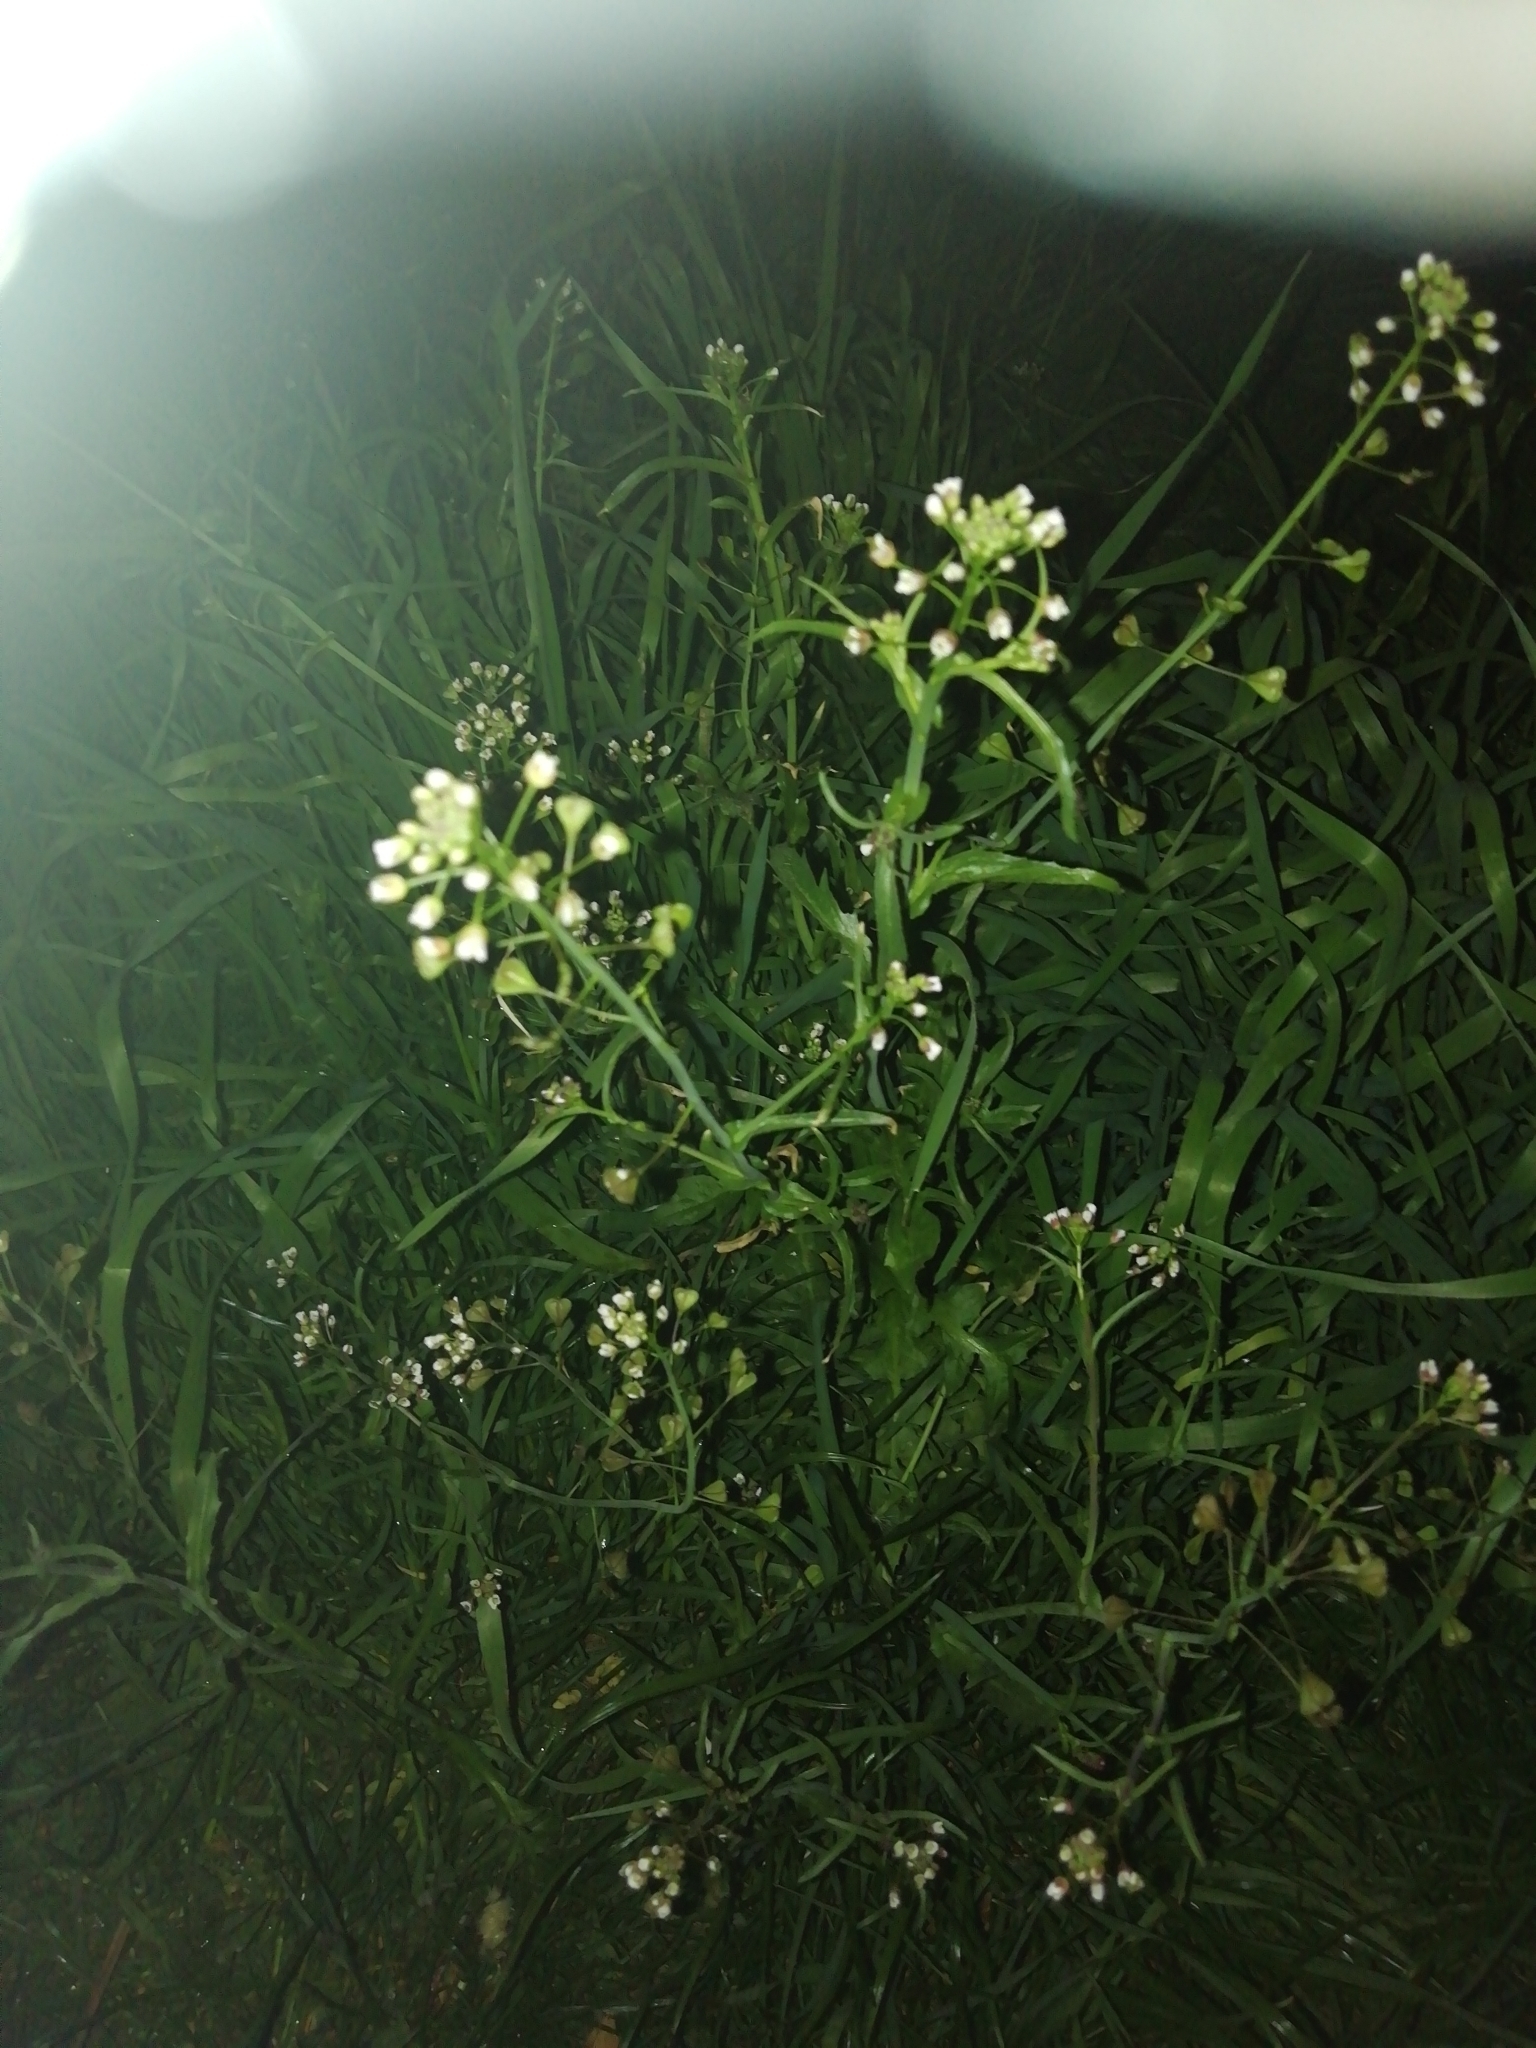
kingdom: Plantae
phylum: Tracheophyta
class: Magnoliopsida
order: Brassicales
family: Brassicaceae
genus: Capsella
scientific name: Capsella bursa-pastoris
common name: Shepherd's purse
